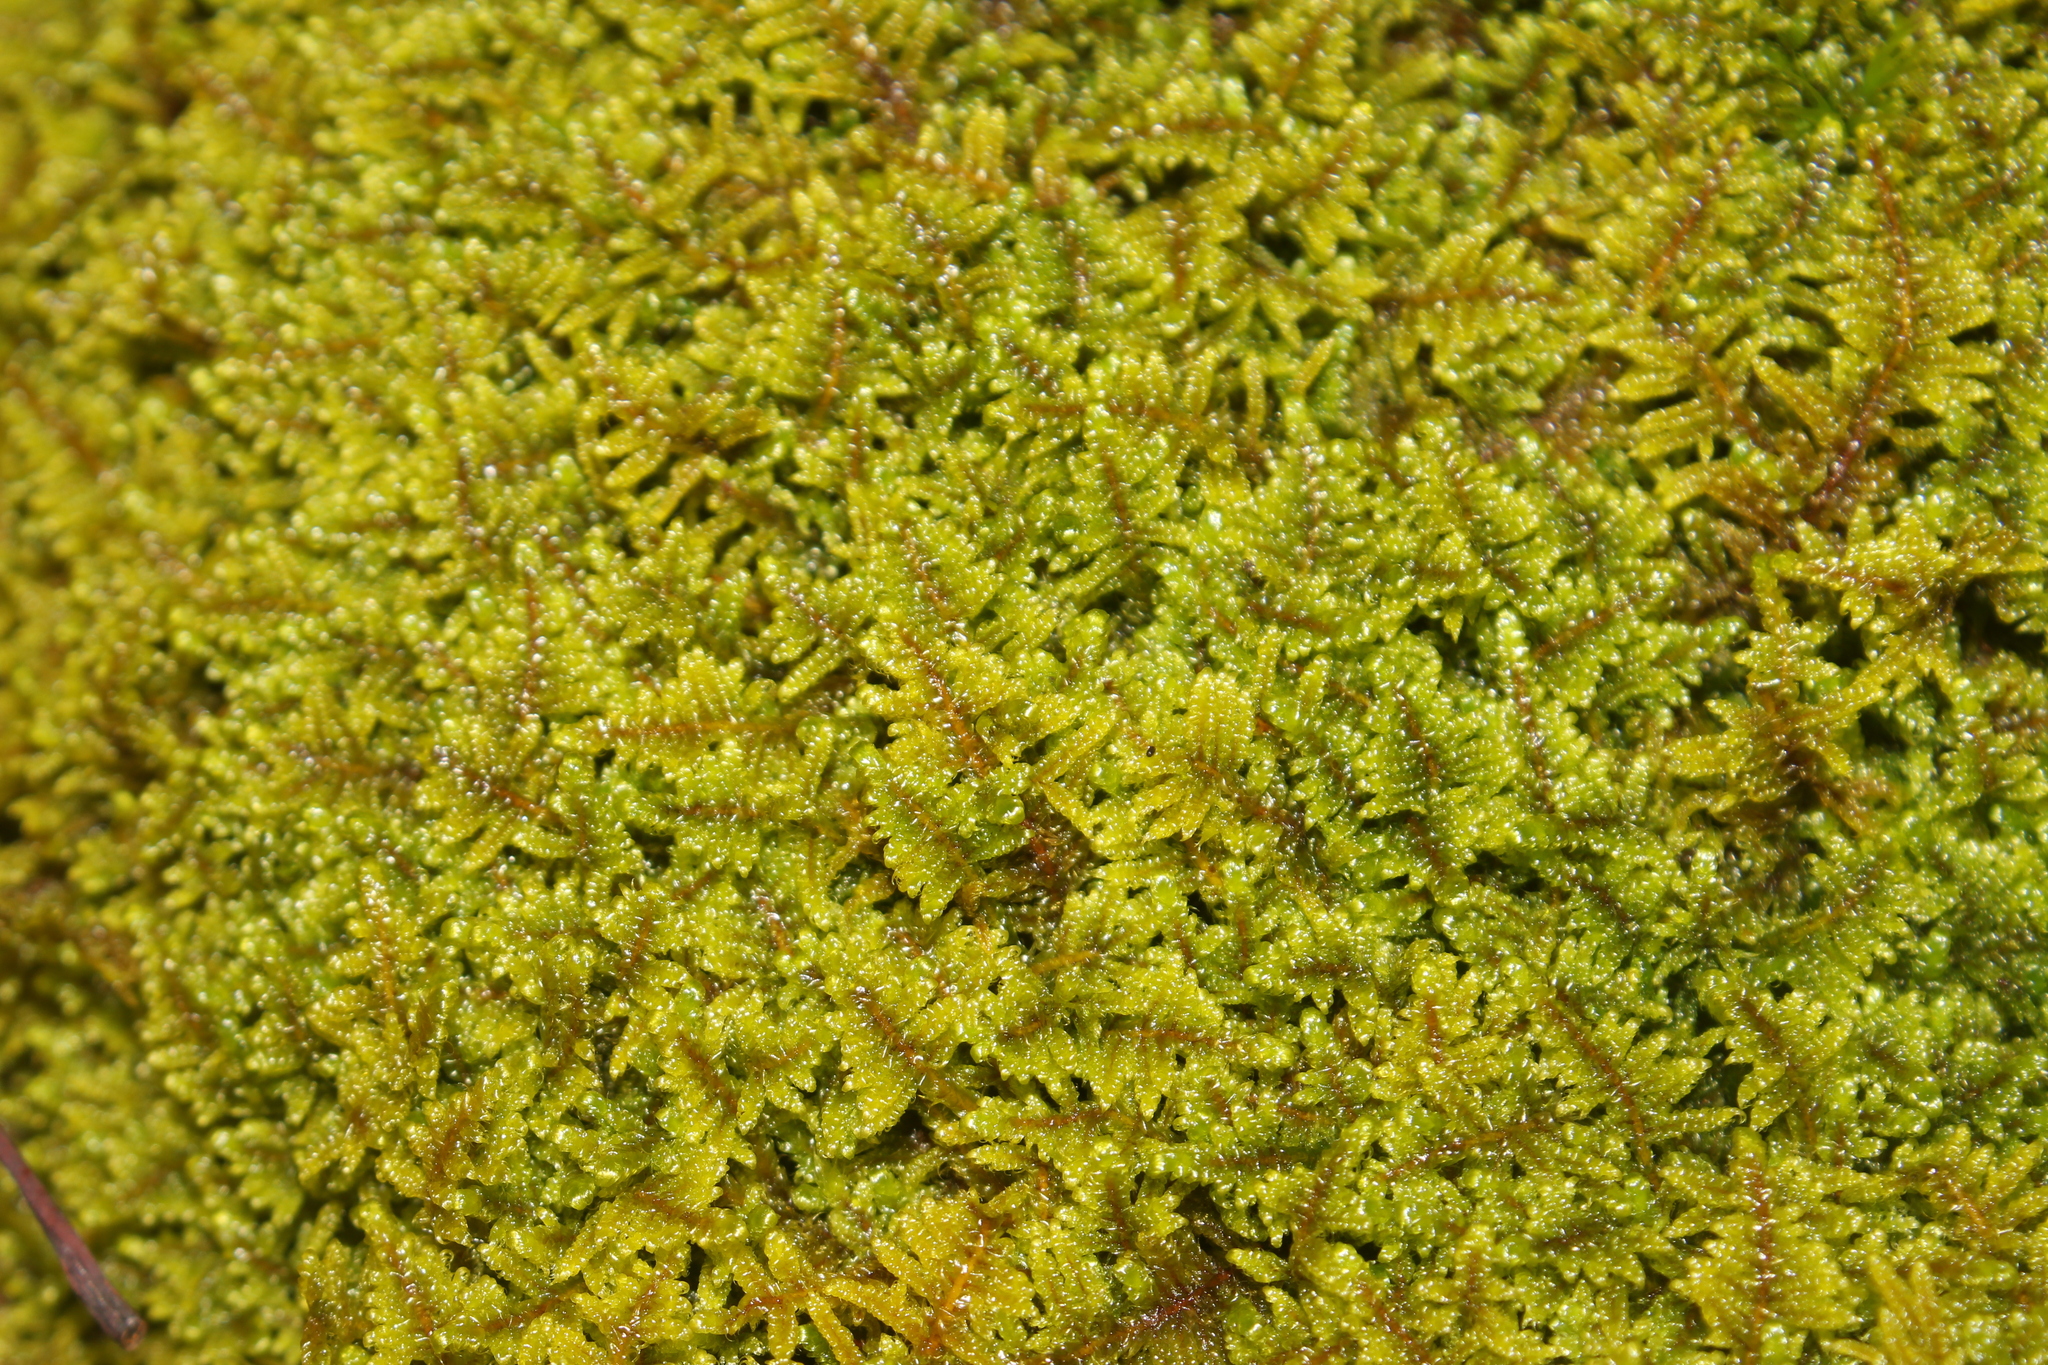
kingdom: Plantae
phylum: Bryophyta
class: Bryopsida
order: Hypnales
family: Callicladiaceae
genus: Callicladium
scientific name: Callicladium imponens
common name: Brocade moss
